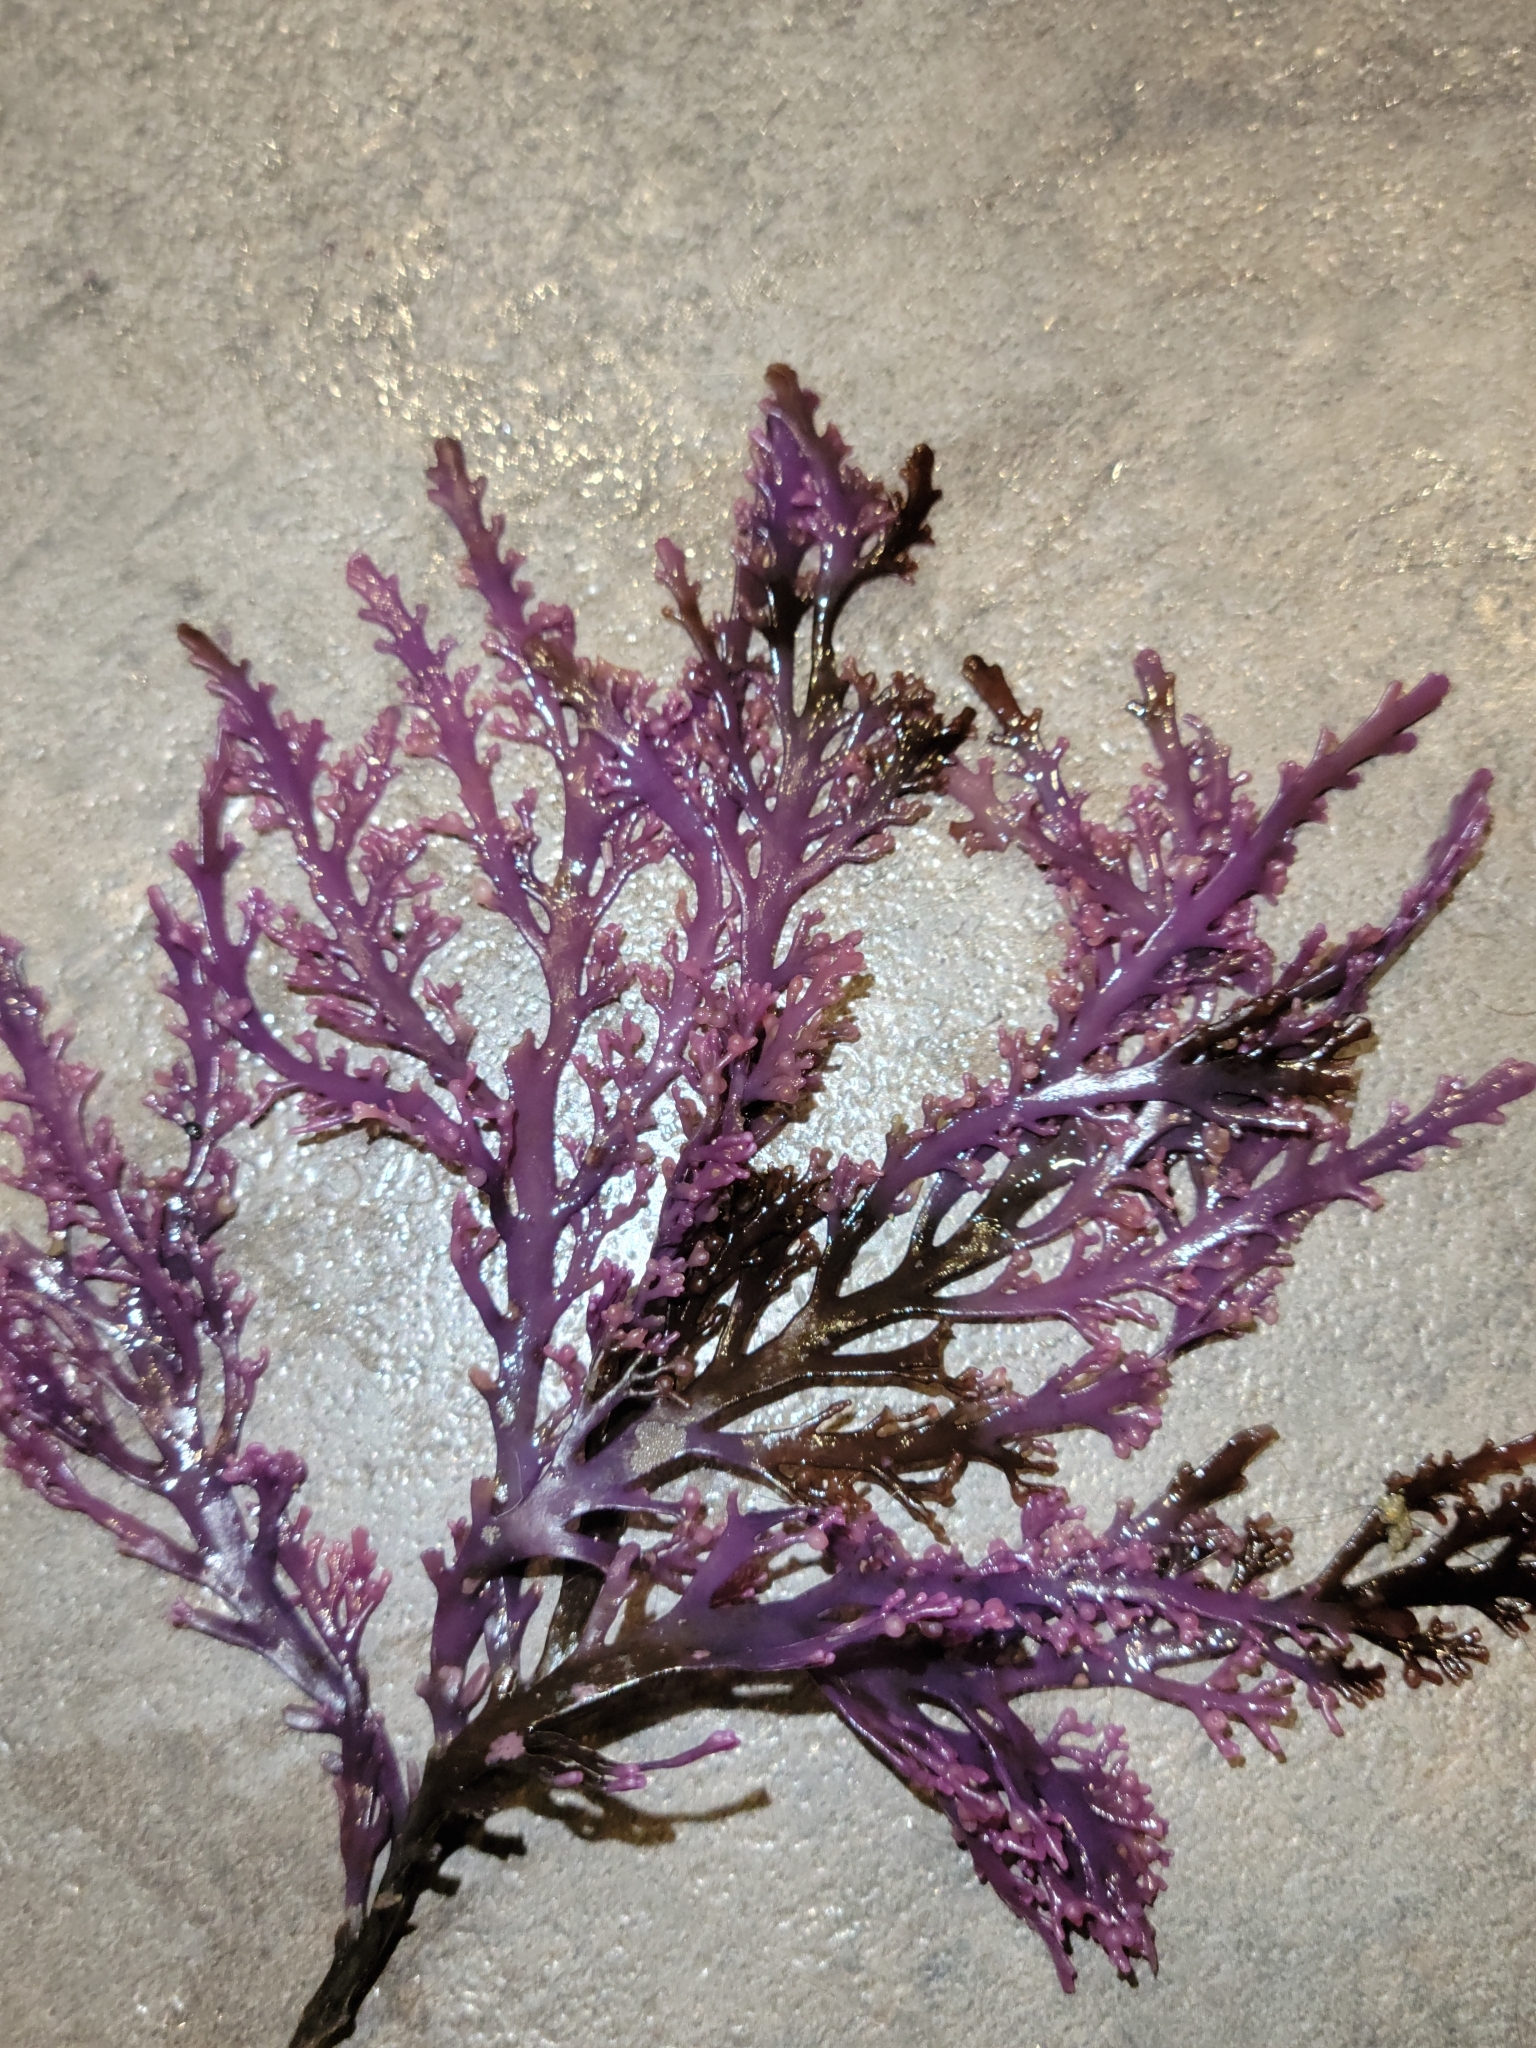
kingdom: Plantae
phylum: Rhodophyta
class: Florideophyceae
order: Ceramiales
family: Rhodomelaceae
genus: Osmundea
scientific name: Osmundea spectabilis
